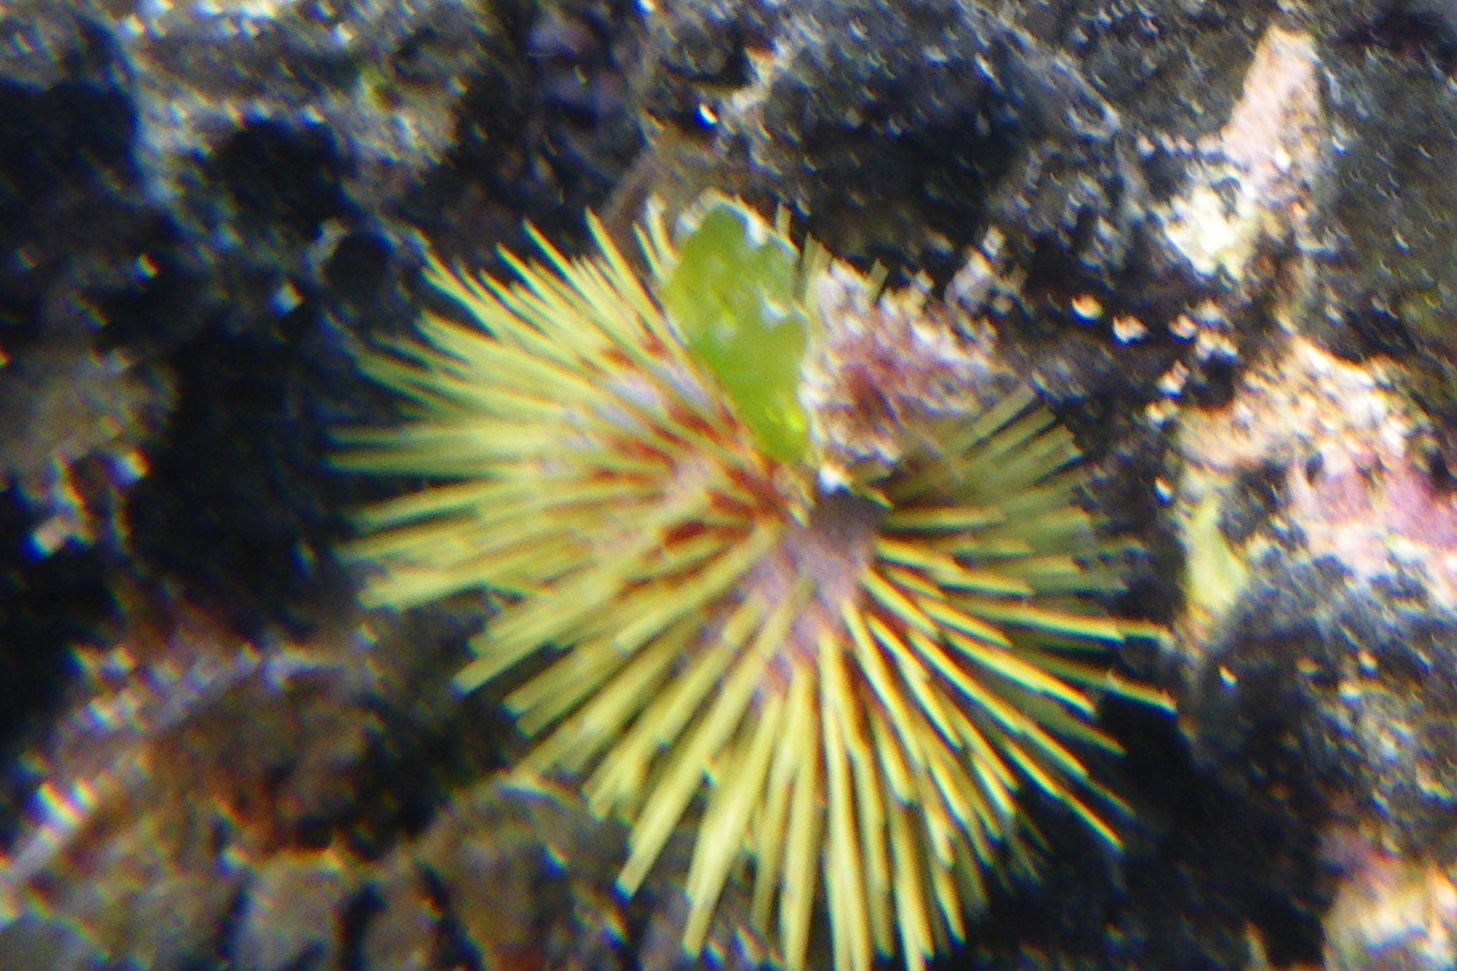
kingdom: Animalia
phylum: Echinodermata
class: Echinoidea
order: Camarodonta
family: Toxopneustidae
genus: Lytechinus
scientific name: Lytechinus semituberculatus
